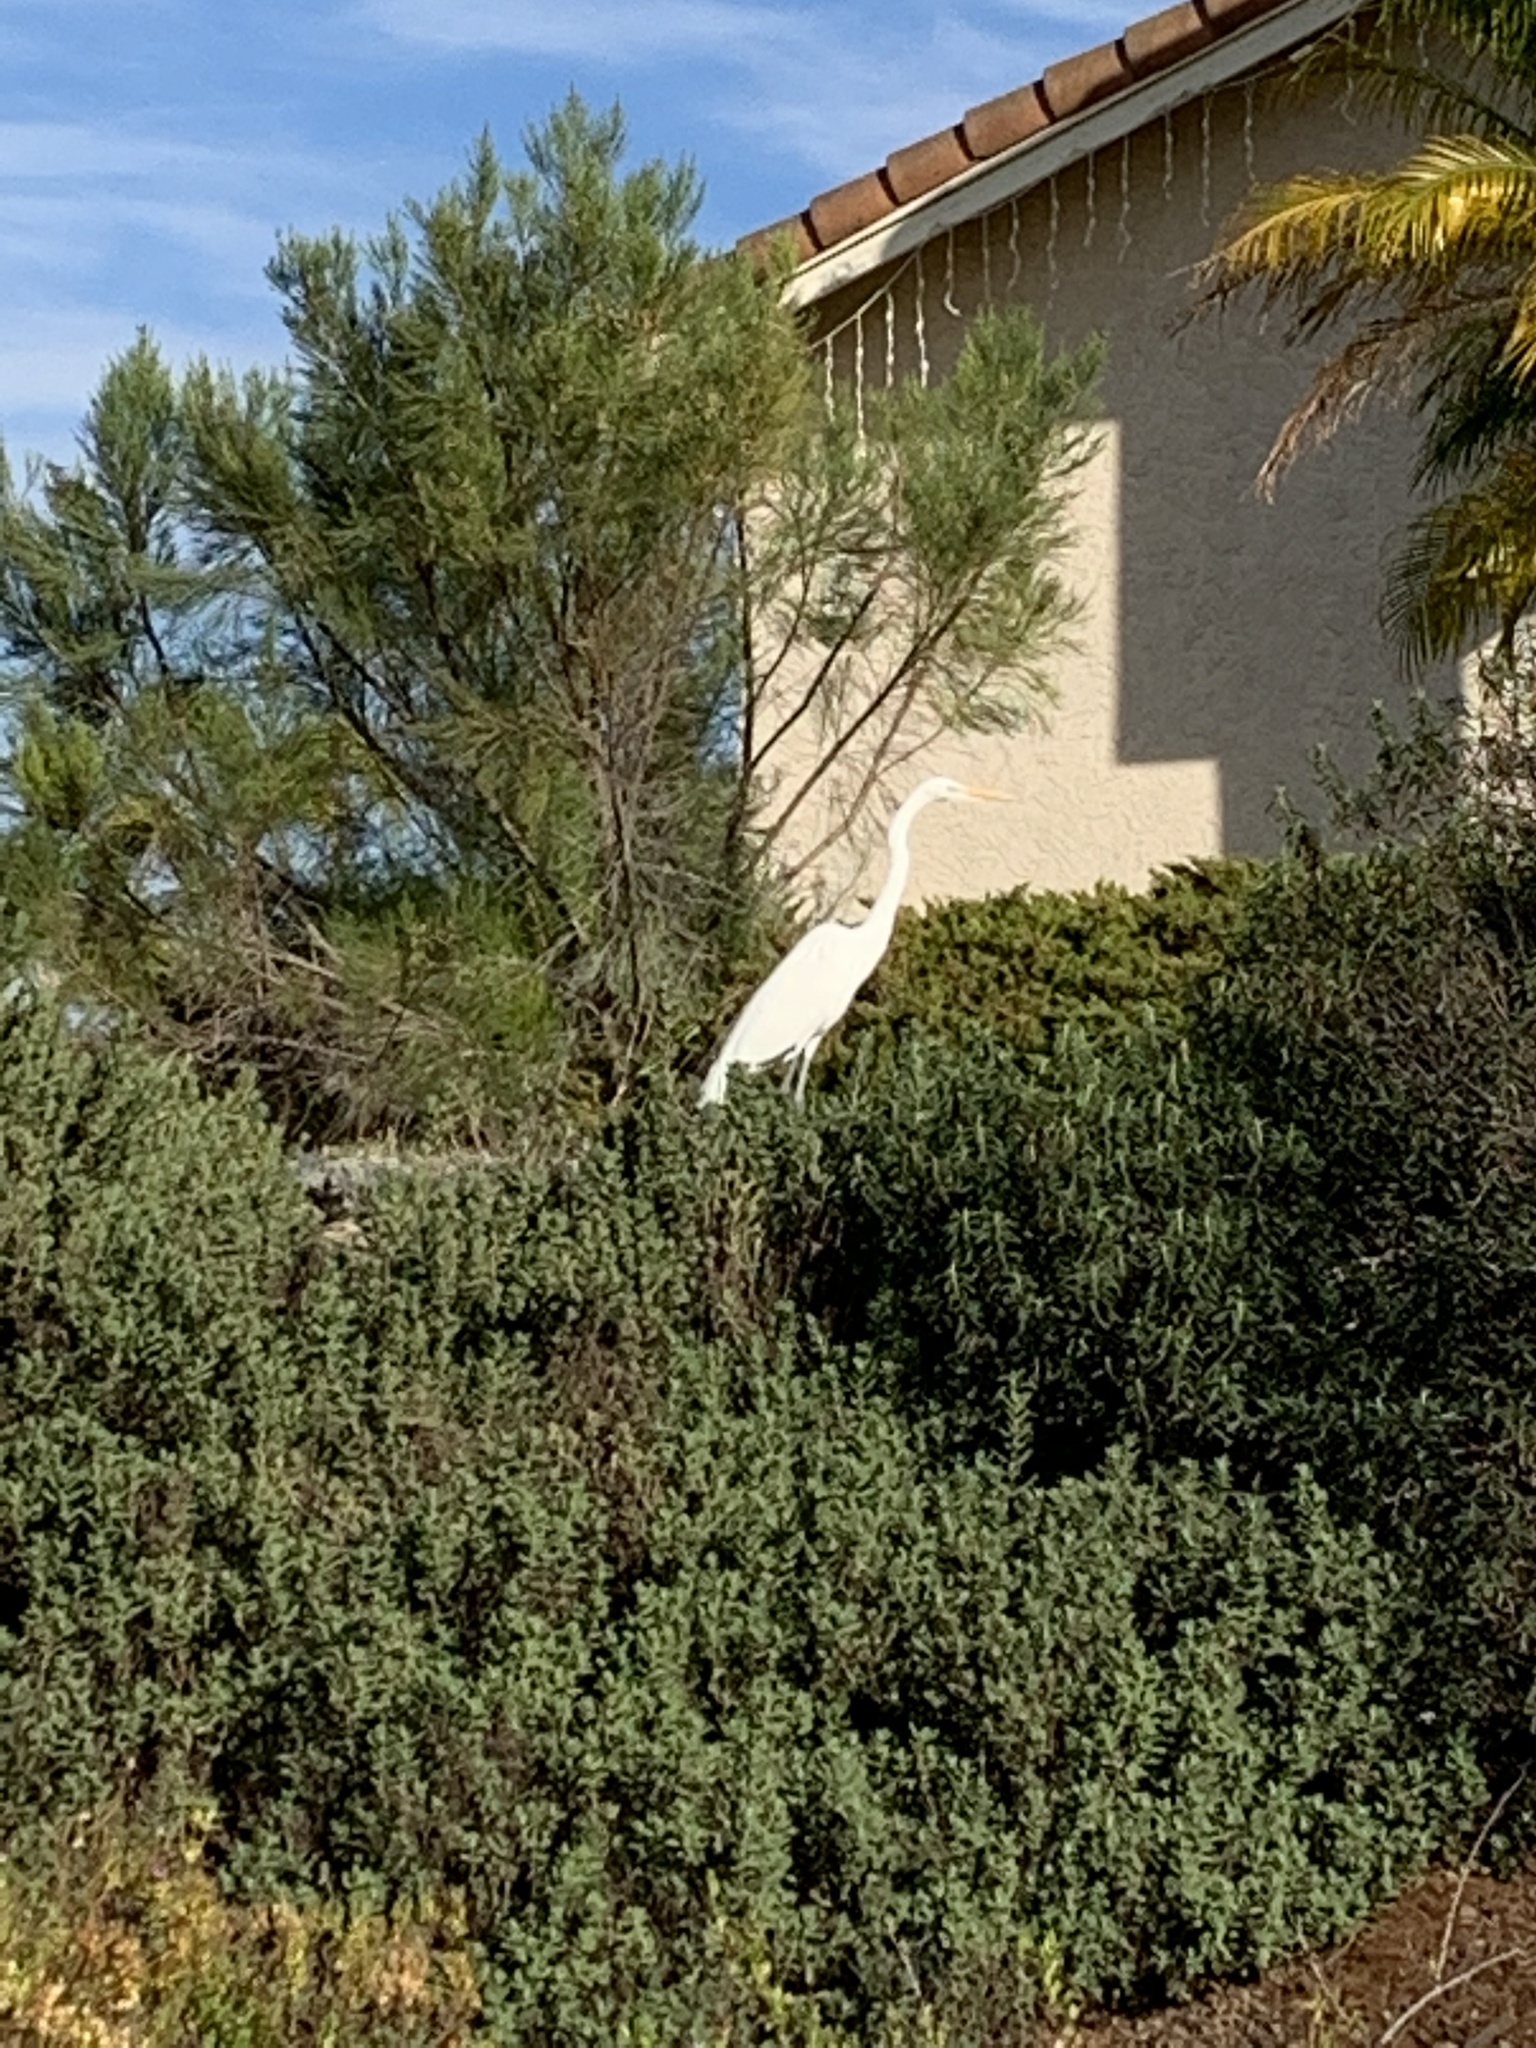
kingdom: Animalia
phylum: Chordata
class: Aves
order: Pelecaniformes
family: Ardeidae
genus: Ardea
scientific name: Ardea alba
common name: Great egret
